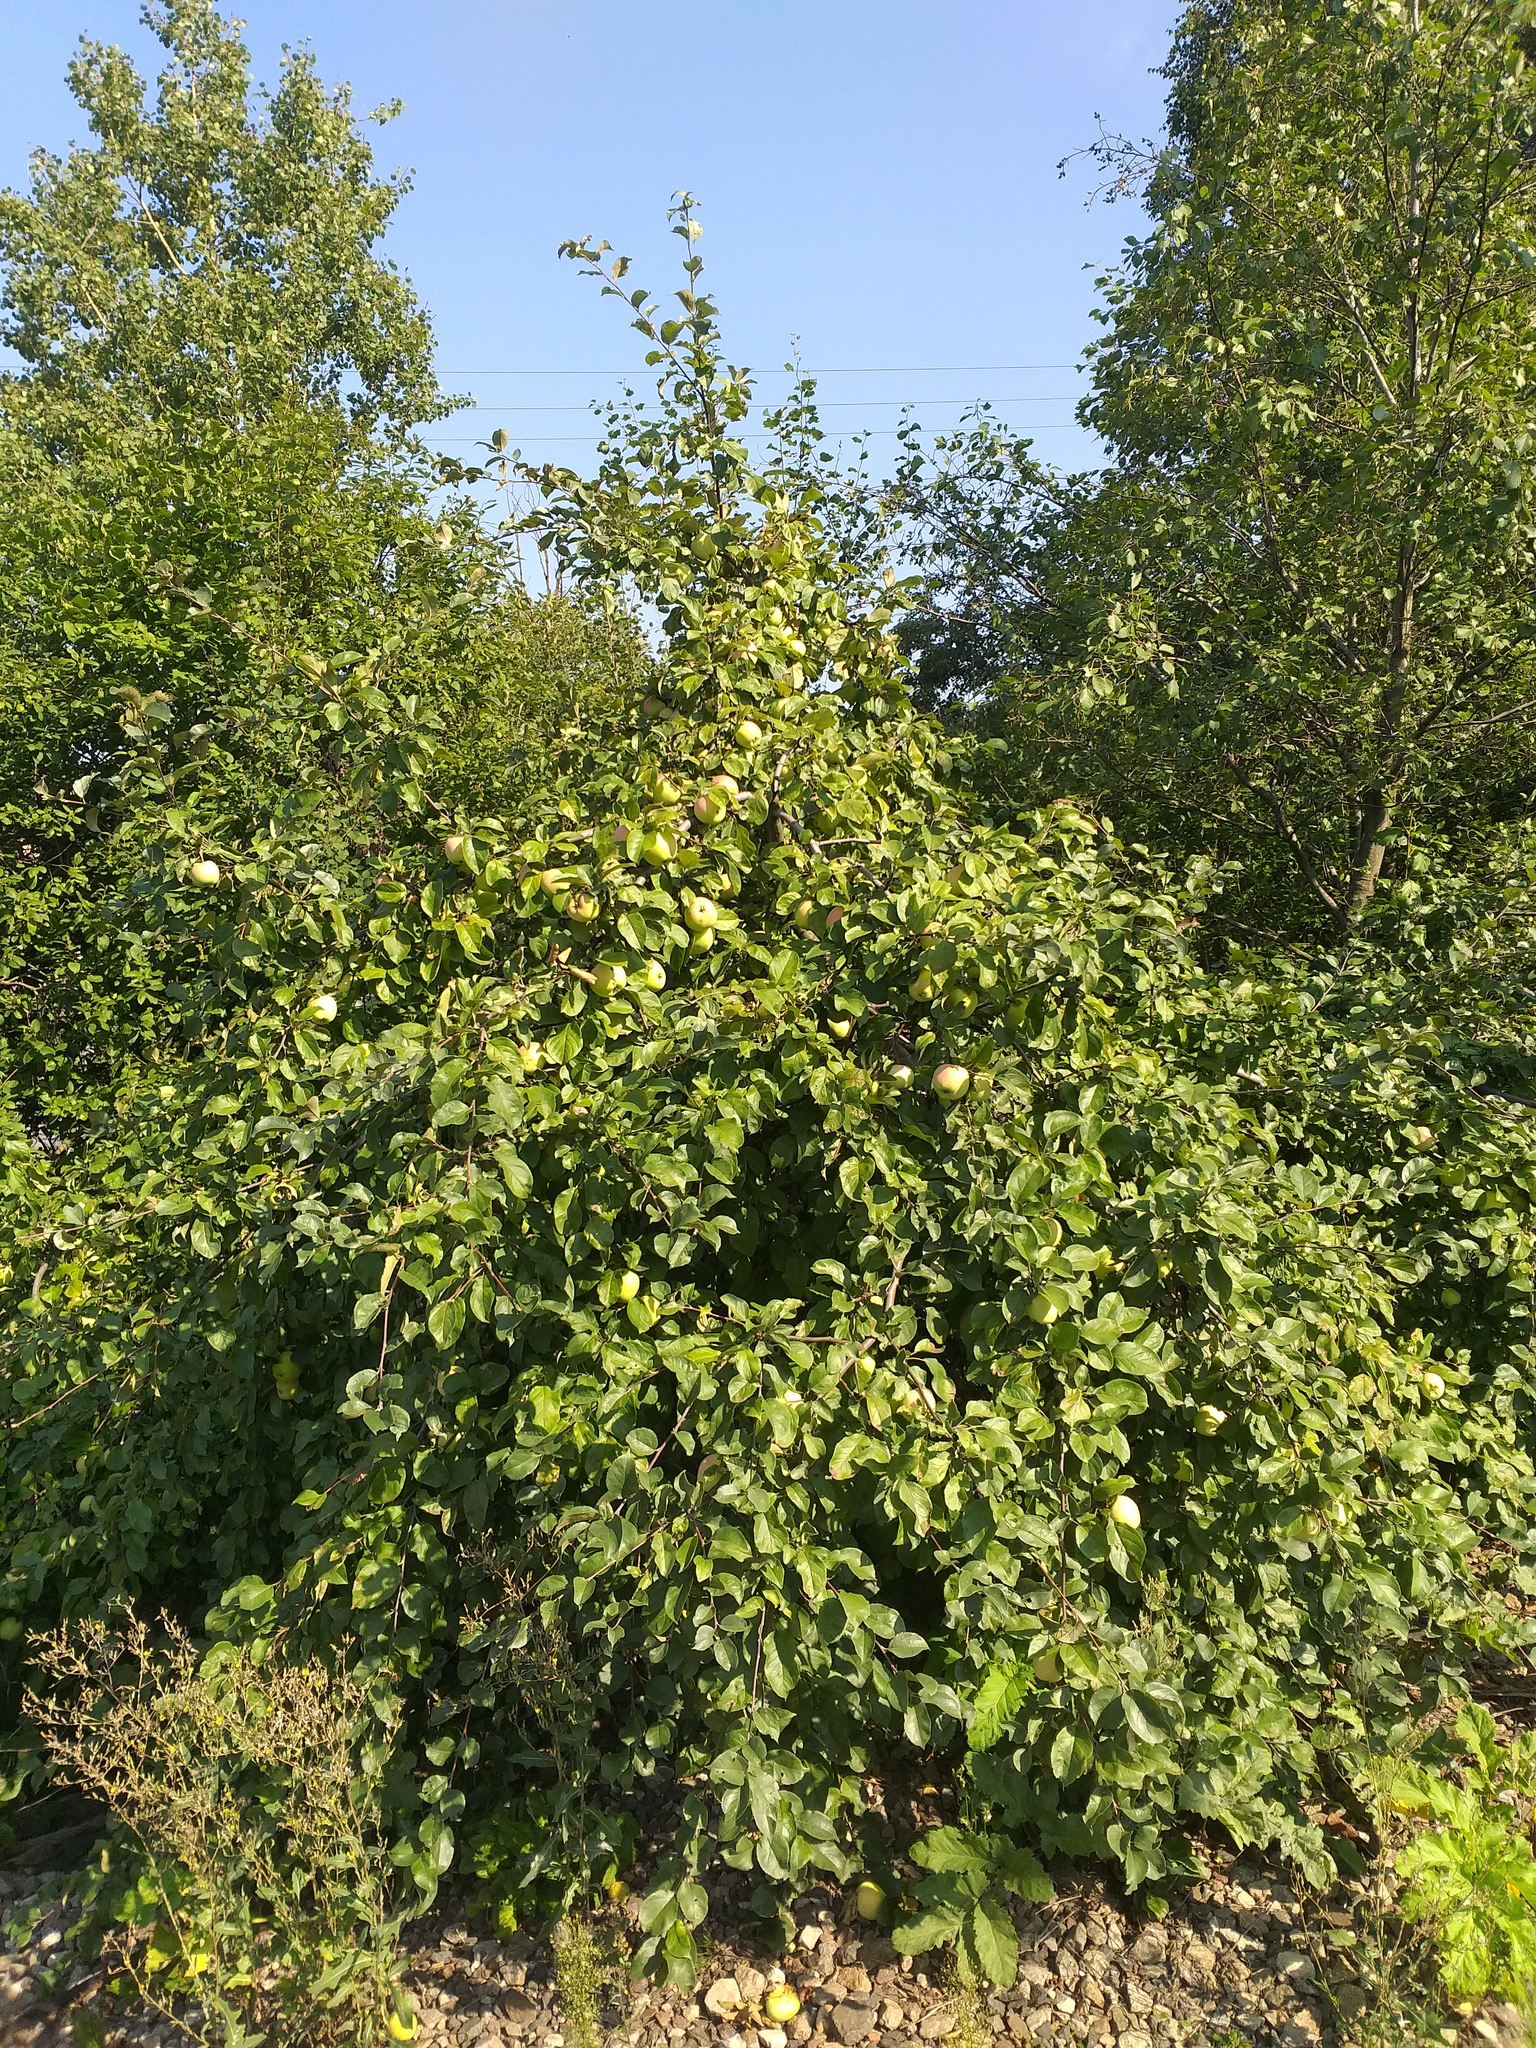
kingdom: Plantae
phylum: Tracheophyta
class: Magnoliopsida
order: Rosales
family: Rosaceae
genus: Malus
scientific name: Malus domestica
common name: Apple
